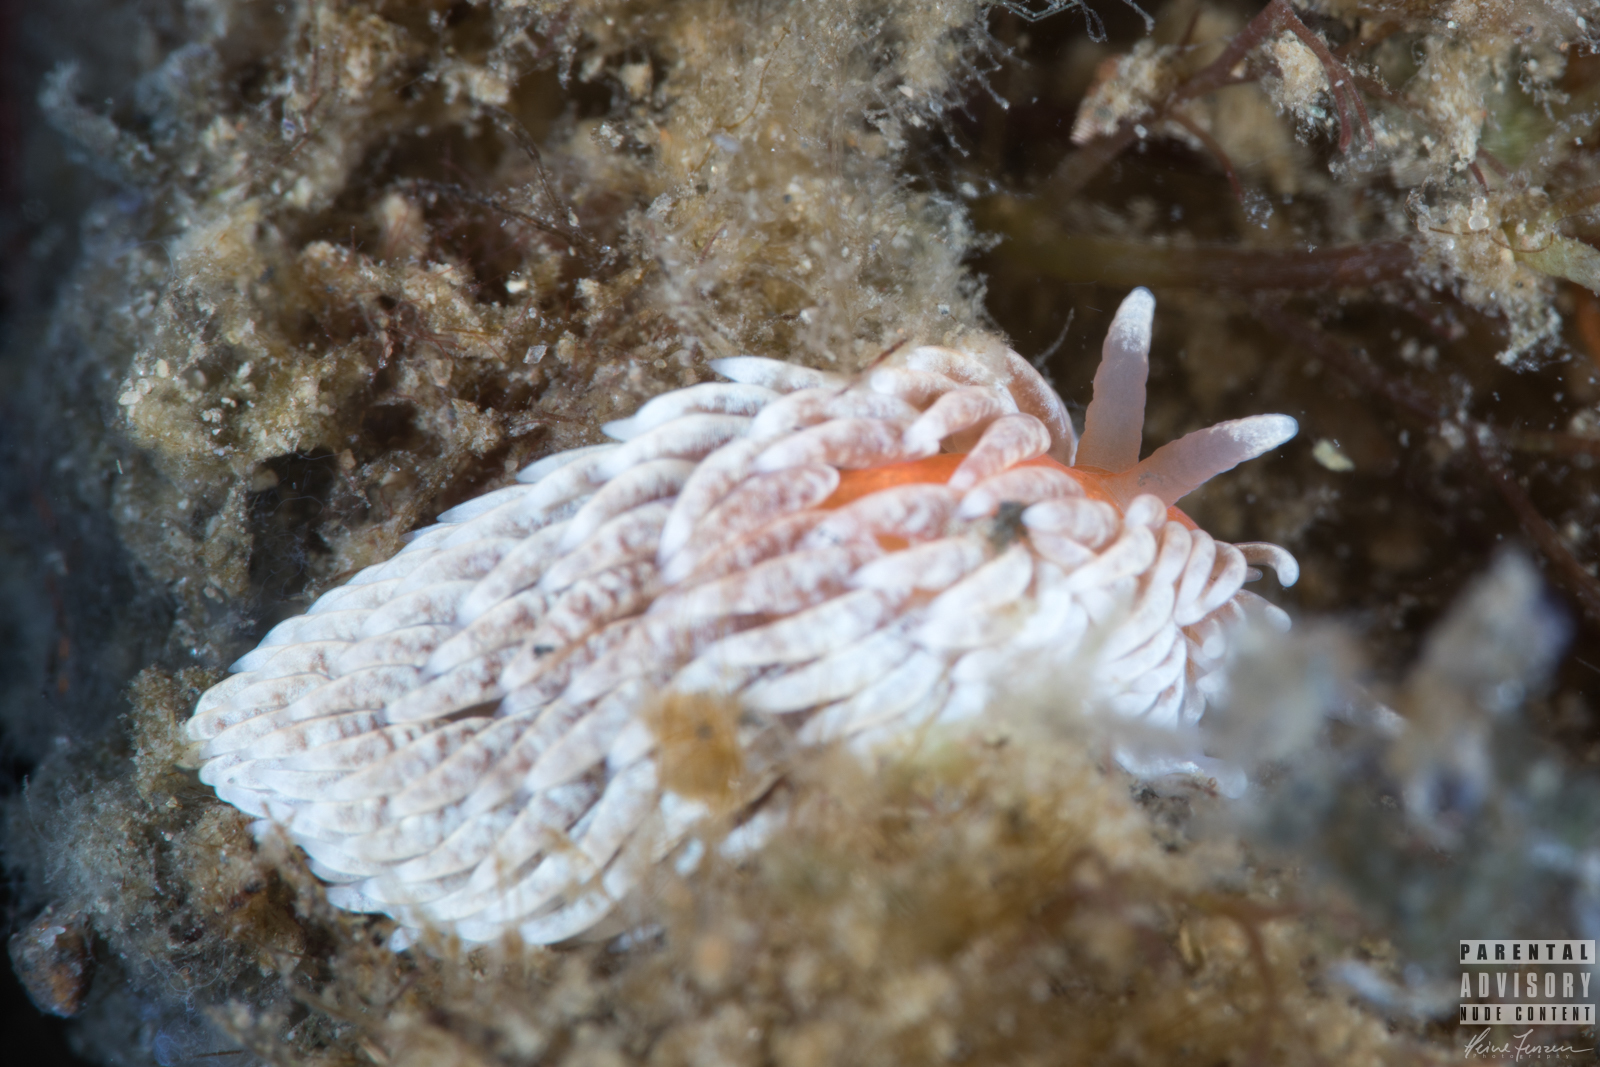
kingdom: Animalia
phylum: Mollusca
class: Gastropoda
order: Nudibranchia
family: Aeolidiidae
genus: Aeolidiella
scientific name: Aeolidiella glauca
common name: Orange-brown aeolid
